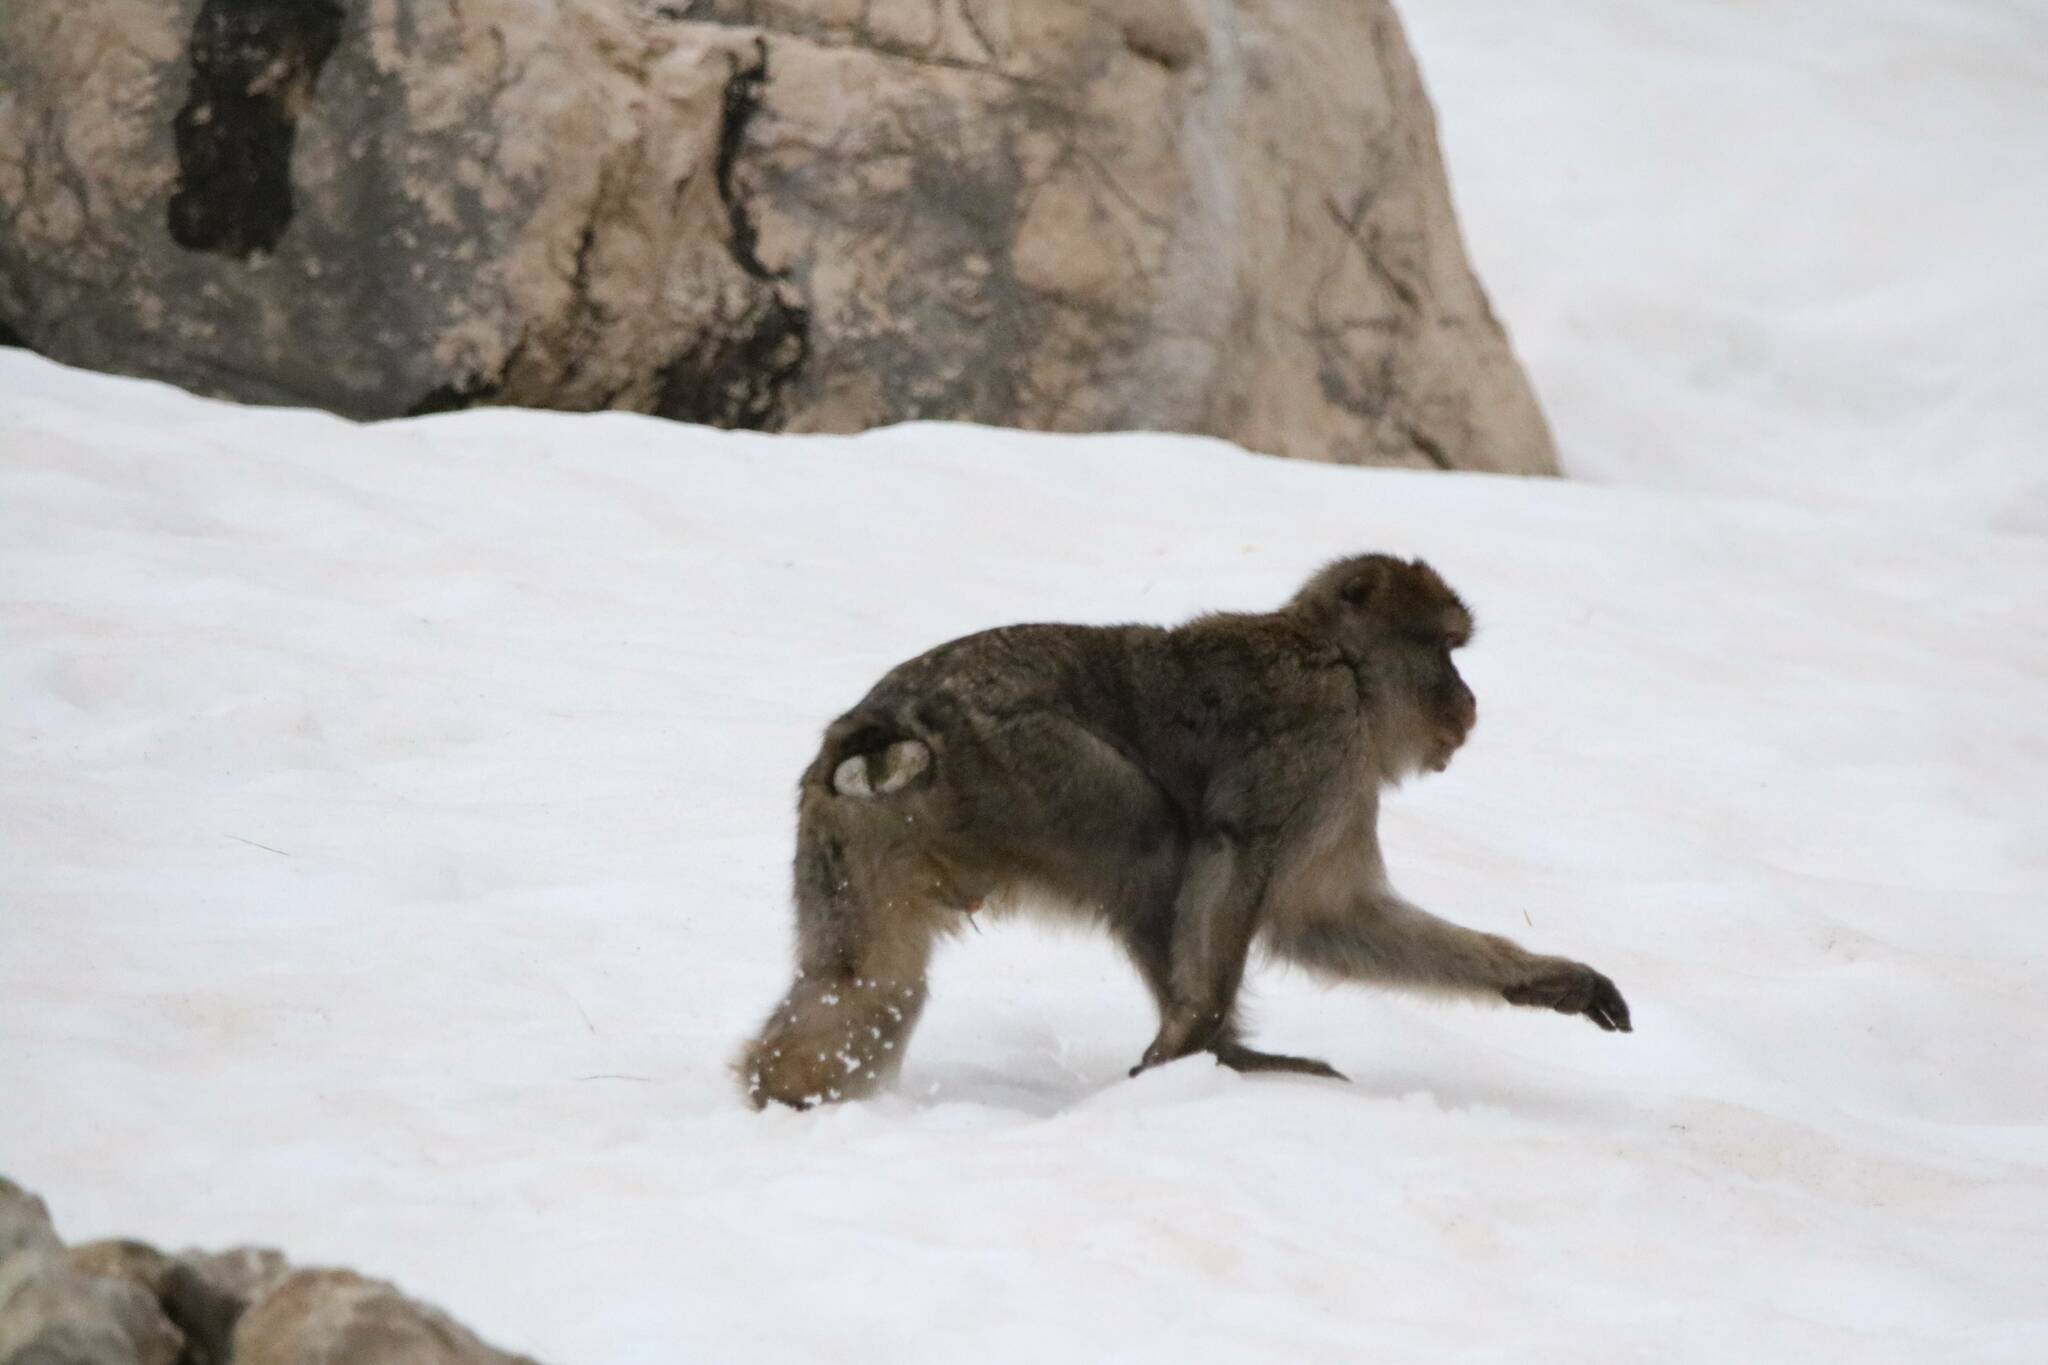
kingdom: Animalia
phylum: Chordata
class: Mammalia
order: Primates
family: Cercopithecidae
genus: Macaca
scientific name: Macaca sylvanus
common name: Barbary macaque
